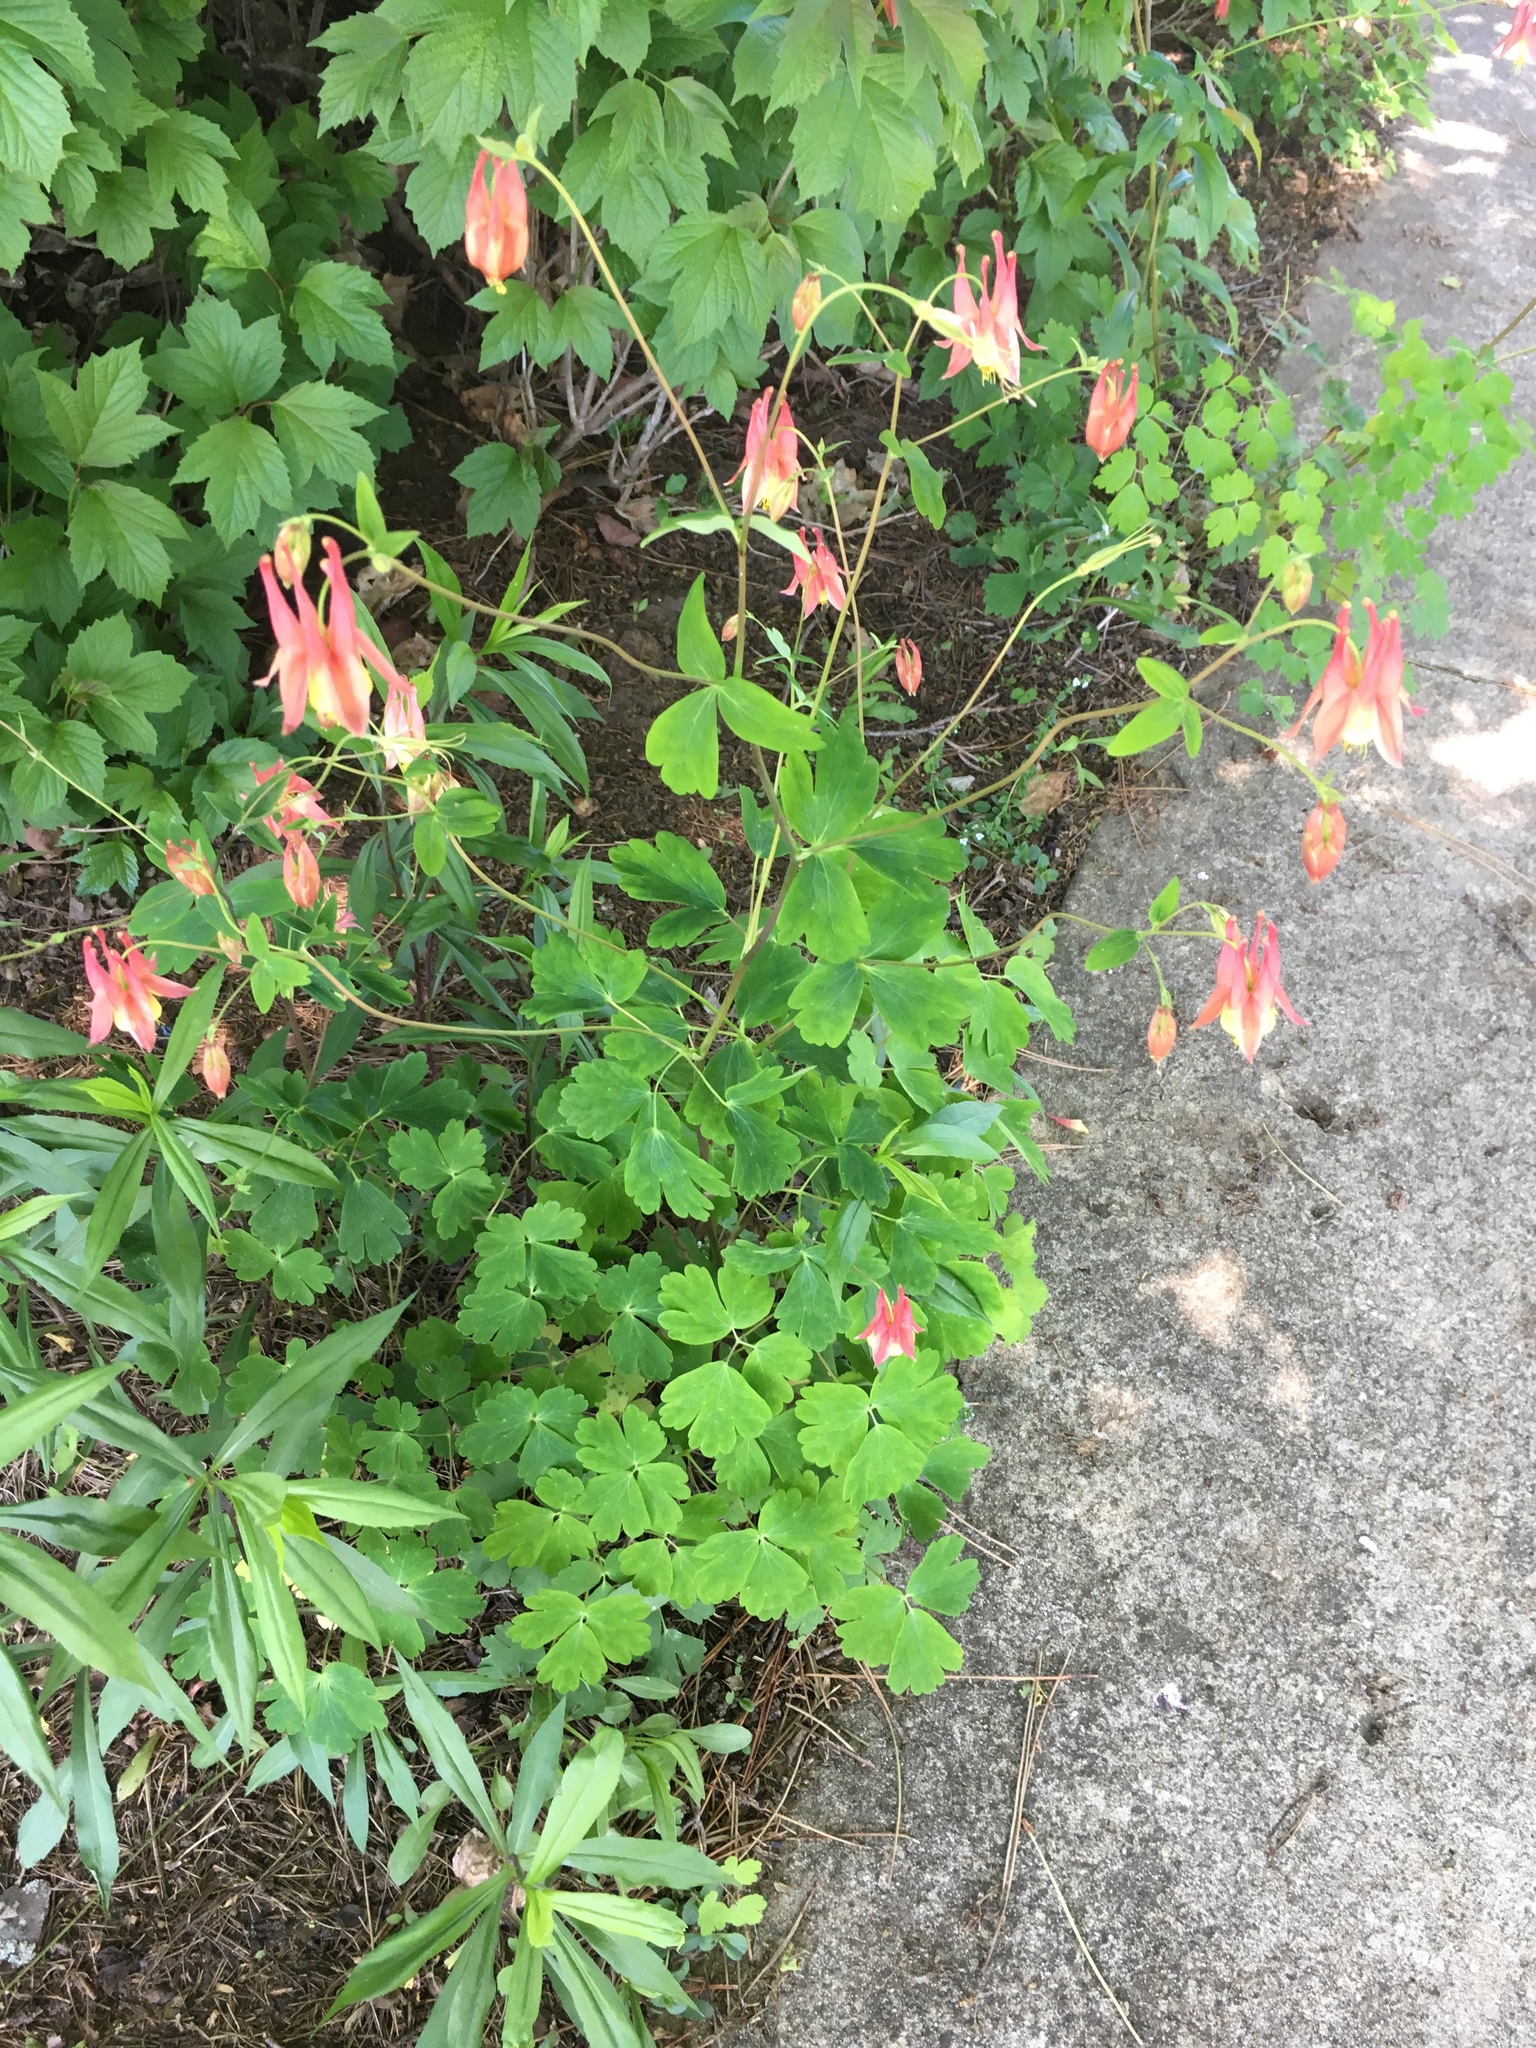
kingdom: Plantae
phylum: Tracheophyta
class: Magnoliopsida
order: Ranunculales
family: Ranunculaceae
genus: Aquilegia
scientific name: Aquilegia canadensis
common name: American columbine
